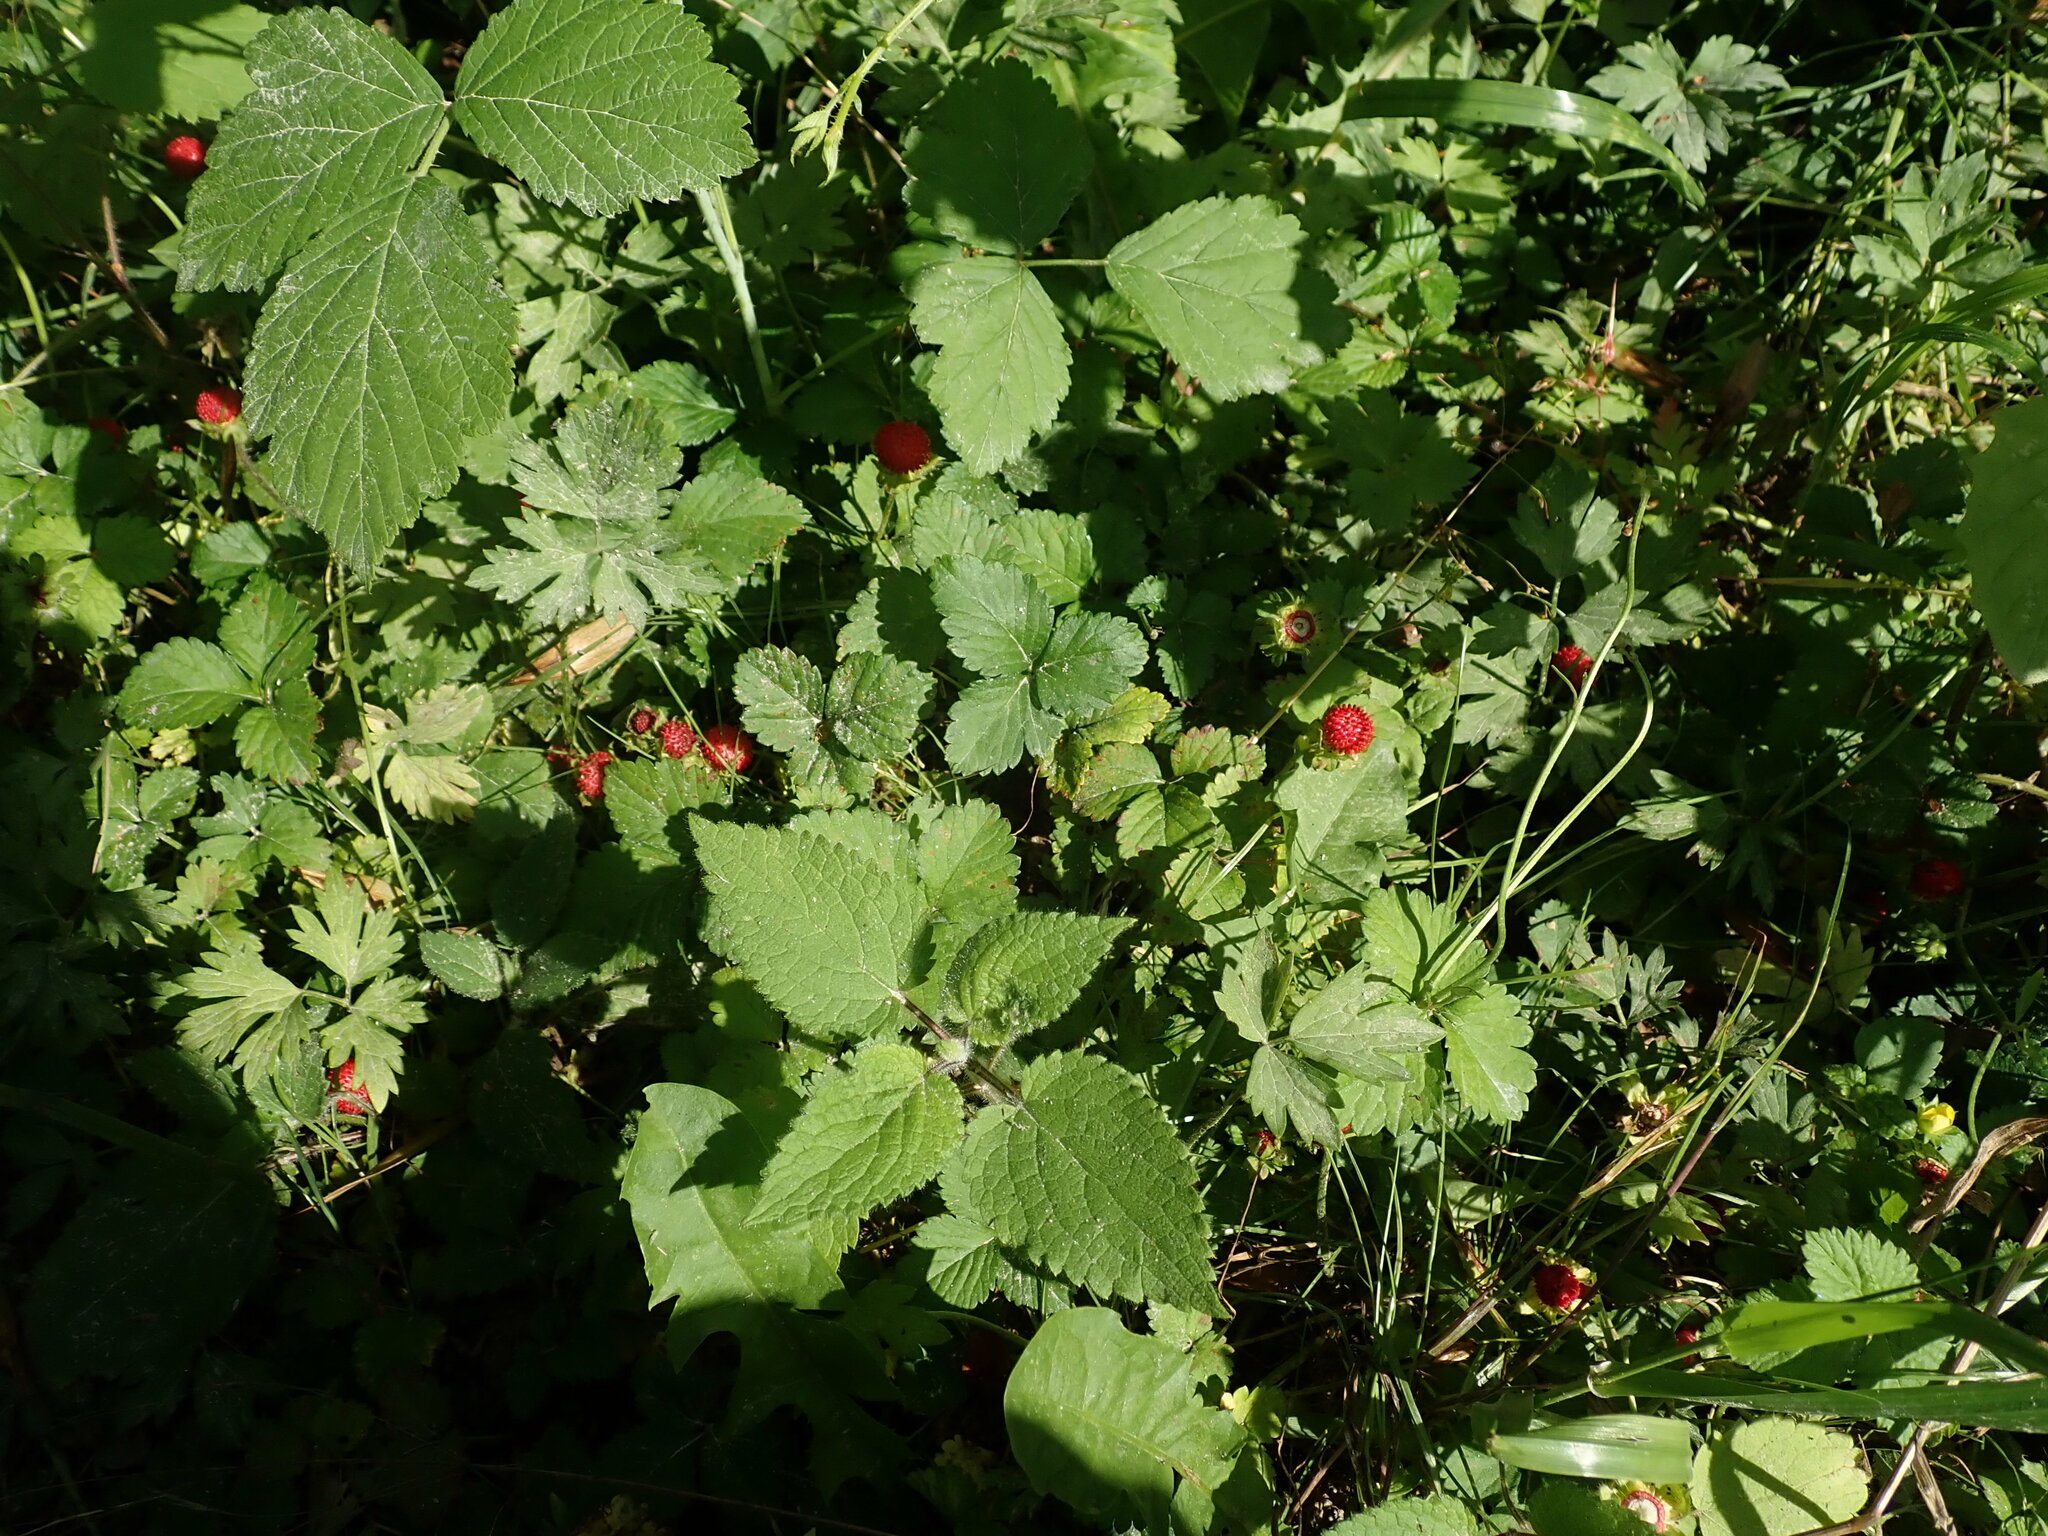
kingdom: Plantae
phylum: Tracheophyta
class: Magnoliopsida
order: Rosales
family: Rosaceae
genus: Potentilla
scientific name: Potentilla indica
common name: Yellow-flowered strawberry
